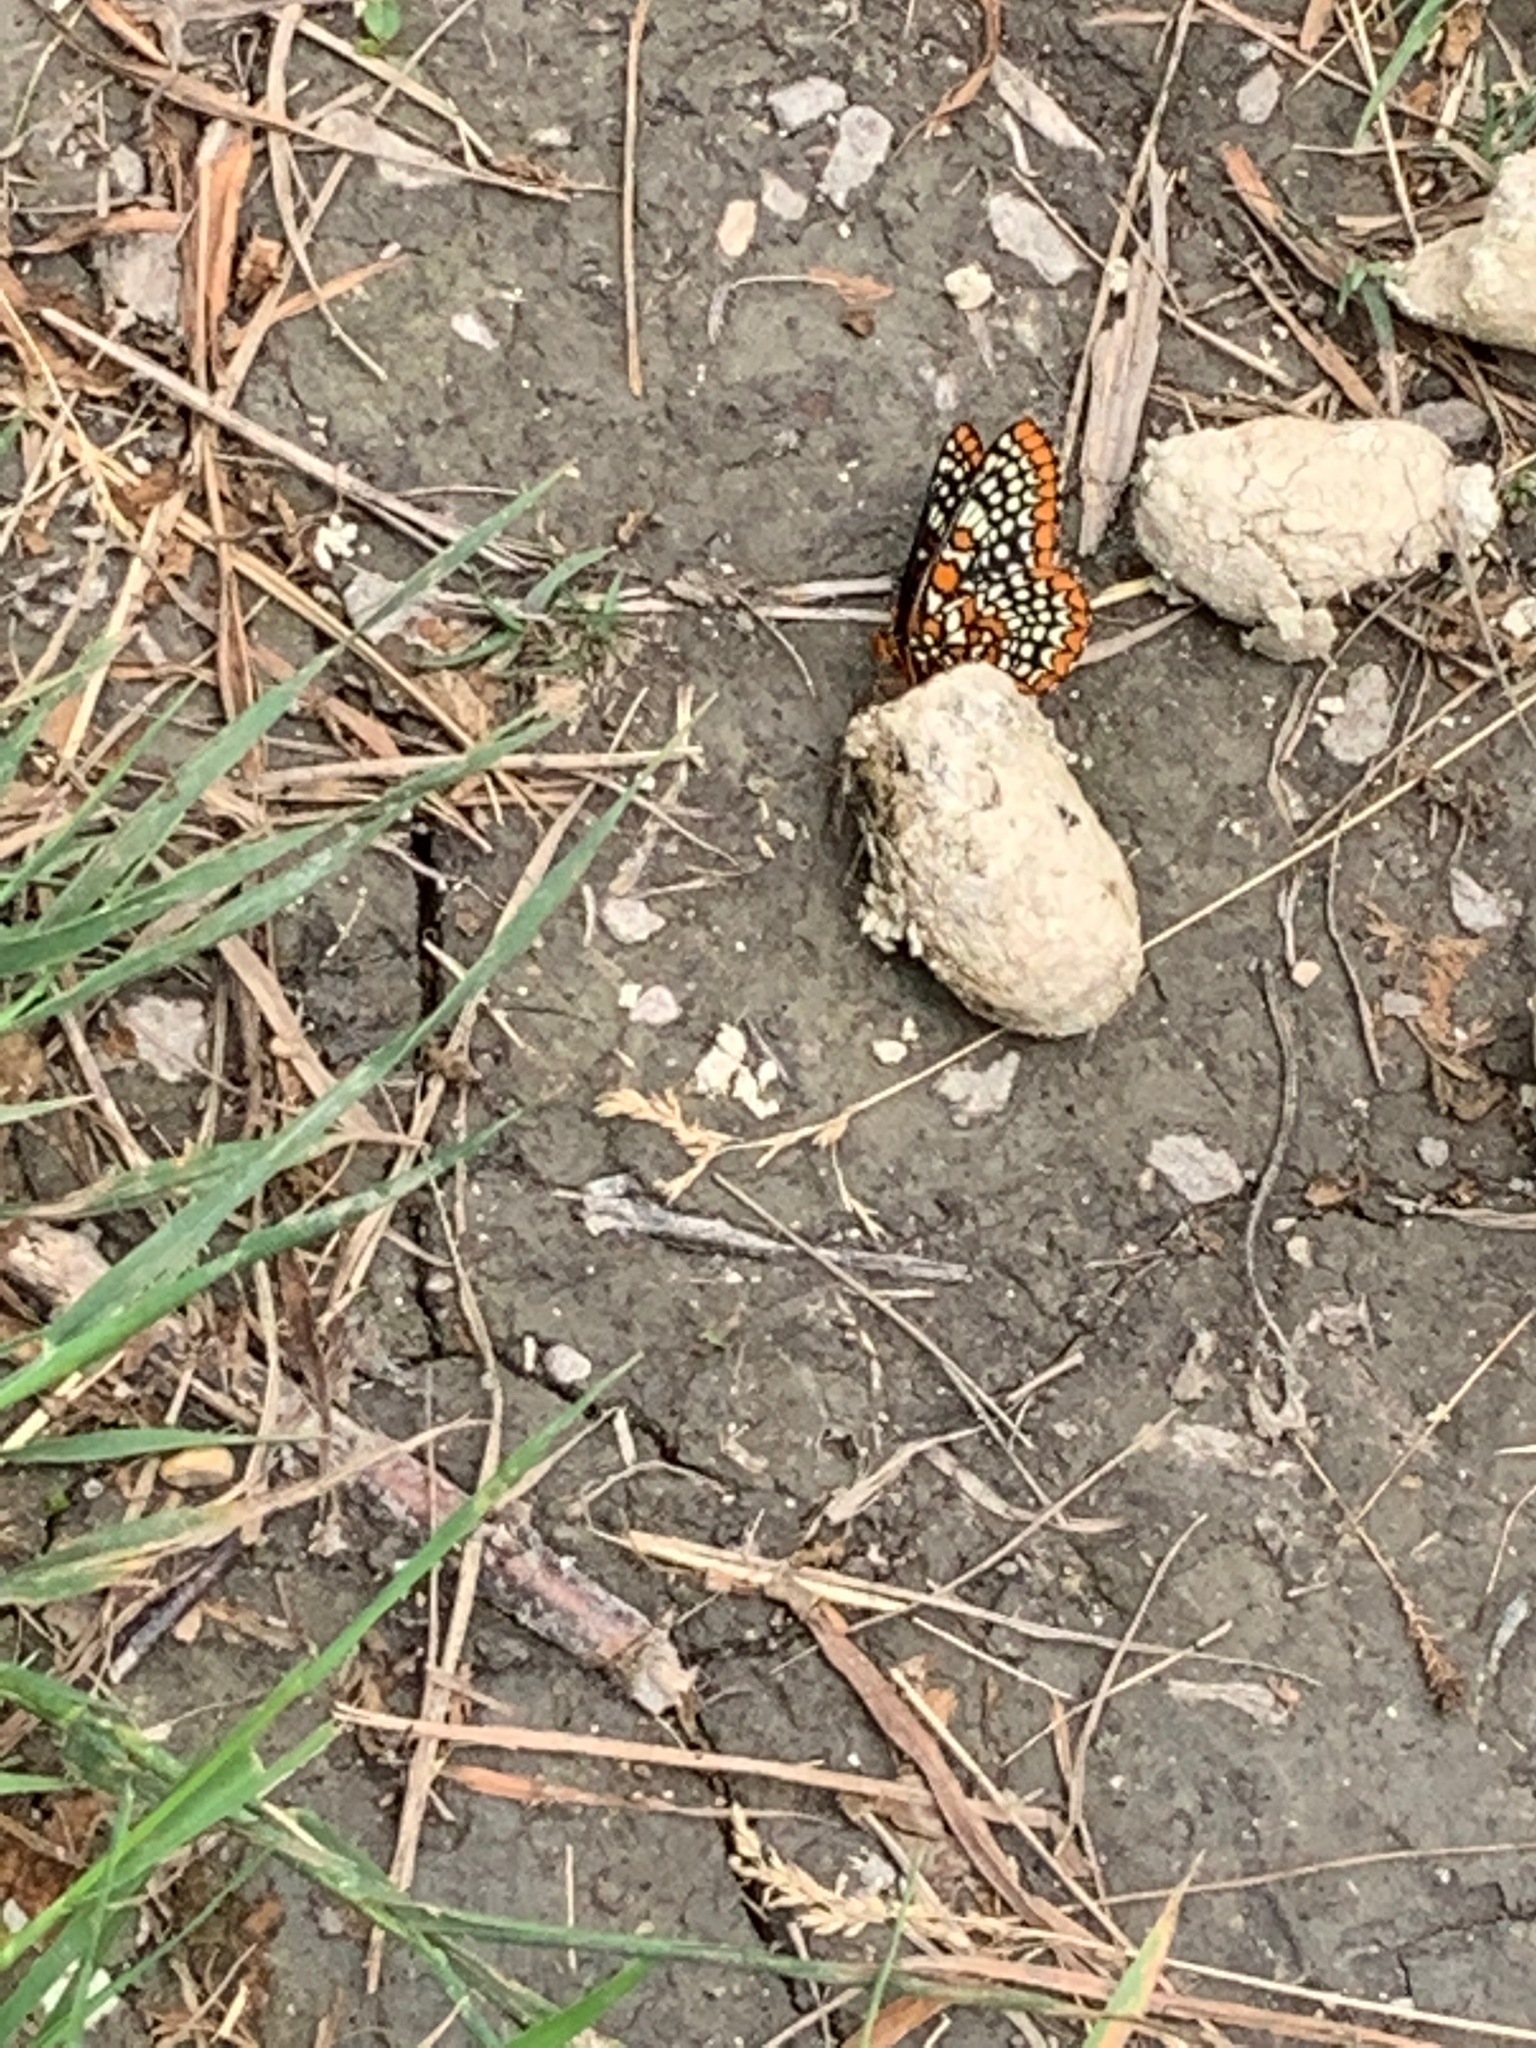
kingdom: Animalia
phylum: Arthropoda
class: Insecta
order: Lepidoptera
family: Nymphalidae
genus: Euphydryas
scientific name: Euphydryas phaeton
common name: Baltimore checkerspot
